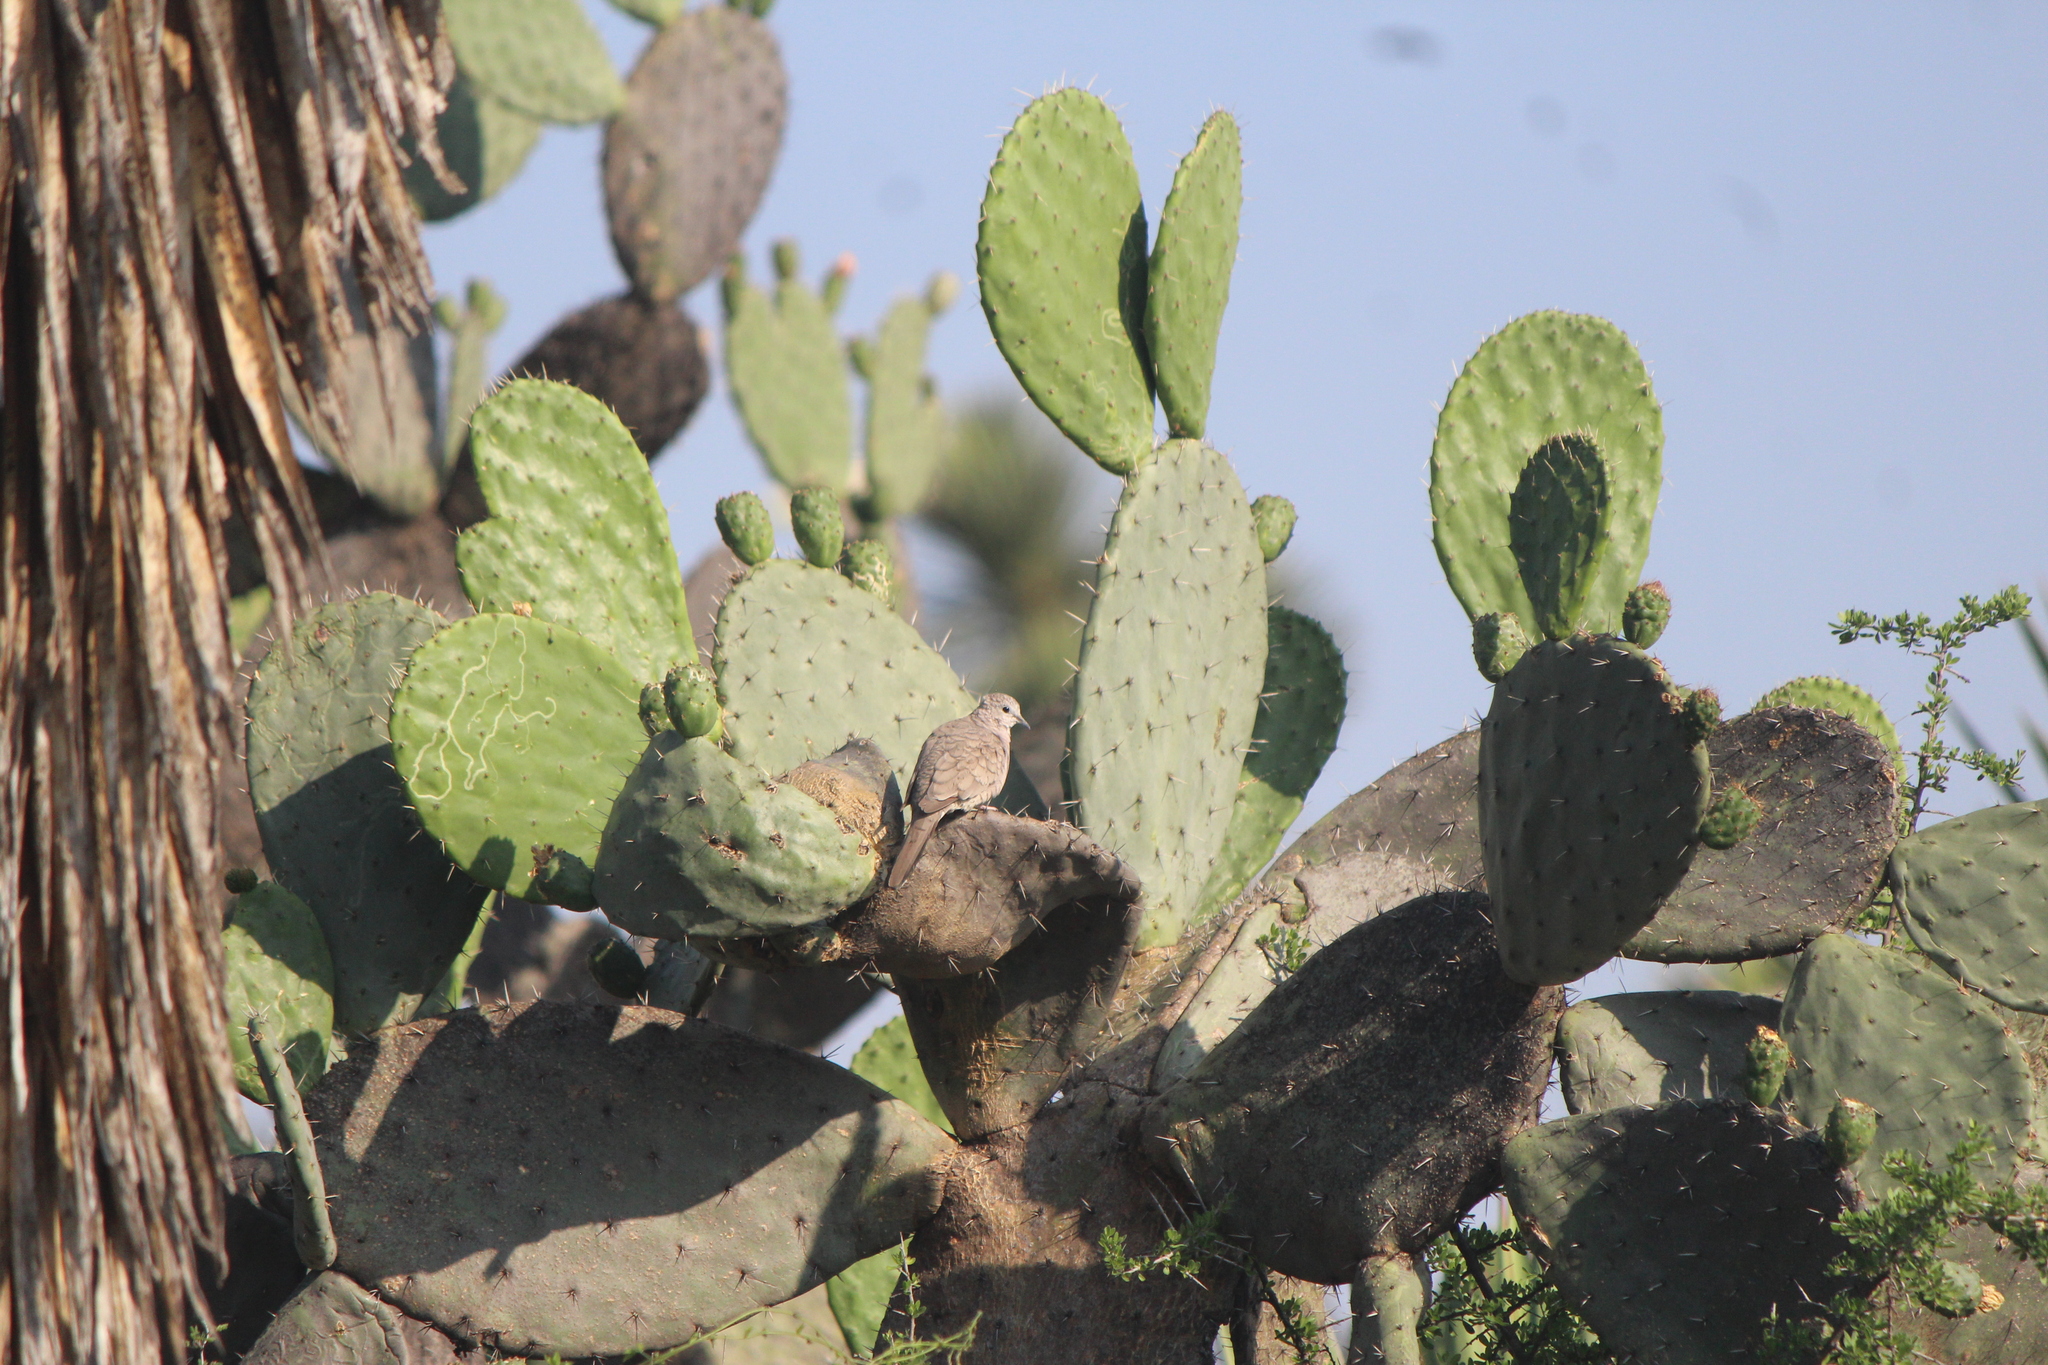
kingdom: Animalia
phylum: Chordata
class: Aves
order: Columbiformes
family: Columbidae
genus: Columbina
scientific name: Columbina inca
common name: Inca dove
